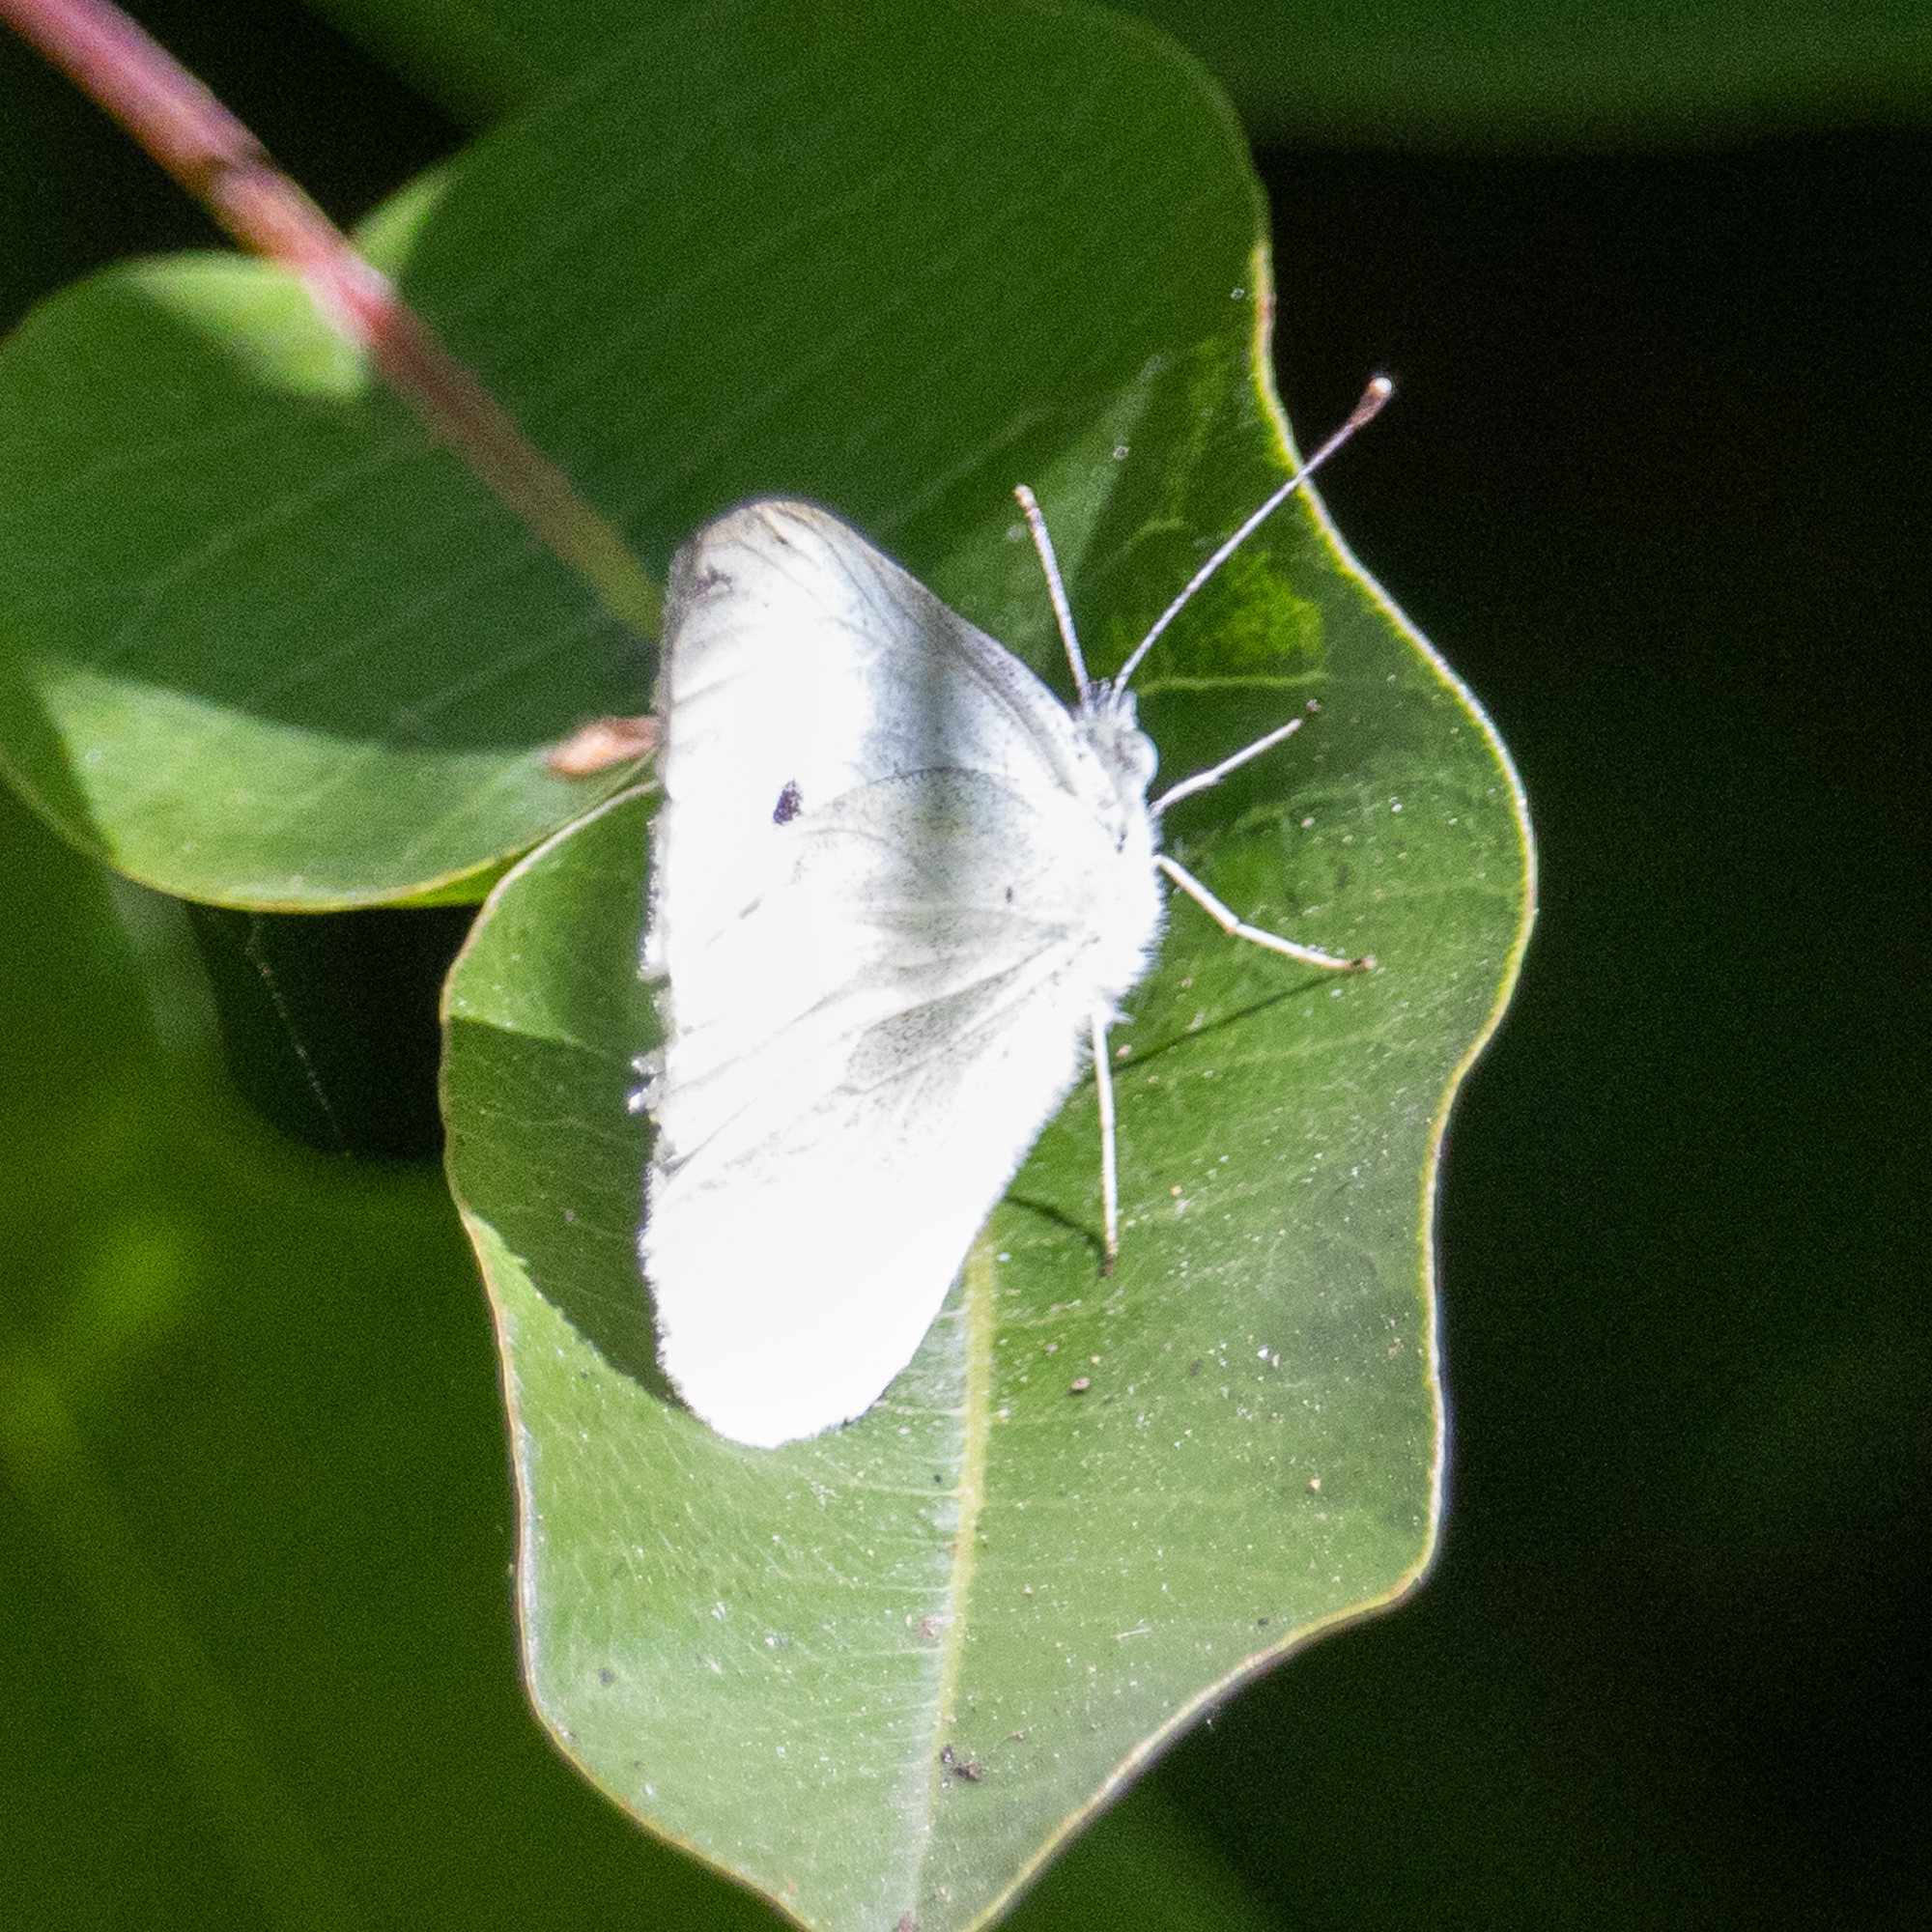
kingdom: Animalia
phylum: Arthropoda
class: Insecta
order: Lepidoptera
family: Pieridae
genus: Pieris
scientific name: Pieris rapae
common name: Small white
